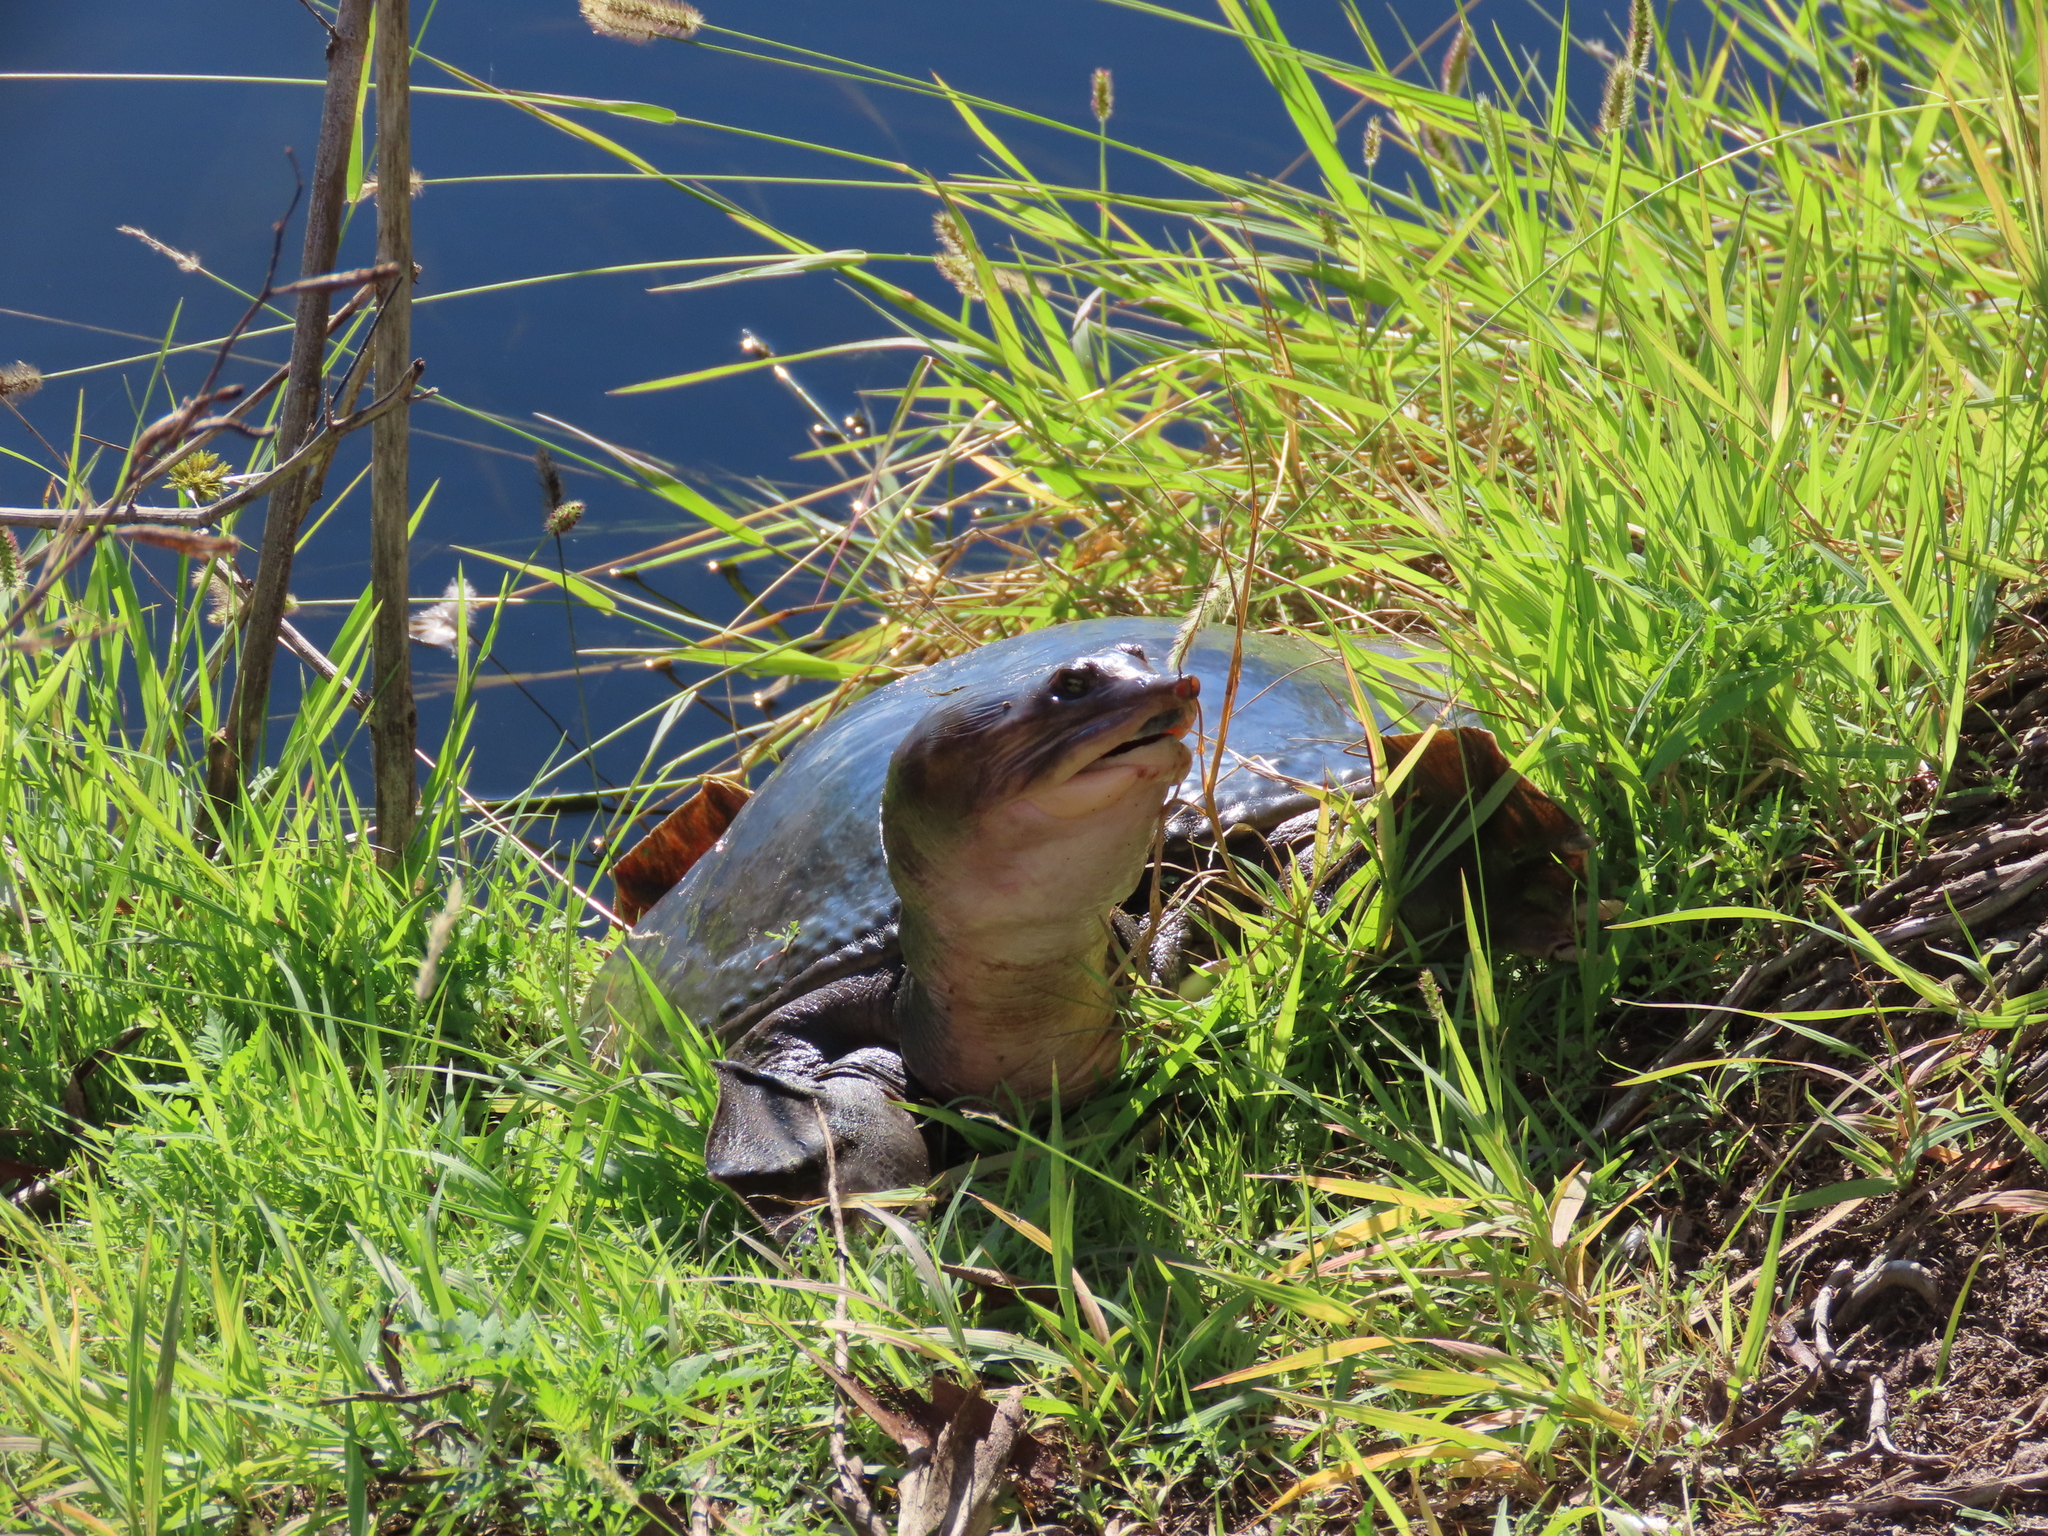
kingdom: Animalia
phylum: Chordata
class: Testudines
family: Trionychidae
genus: Apalone
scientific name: Apalone ferox
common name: Florida softshell turtle
